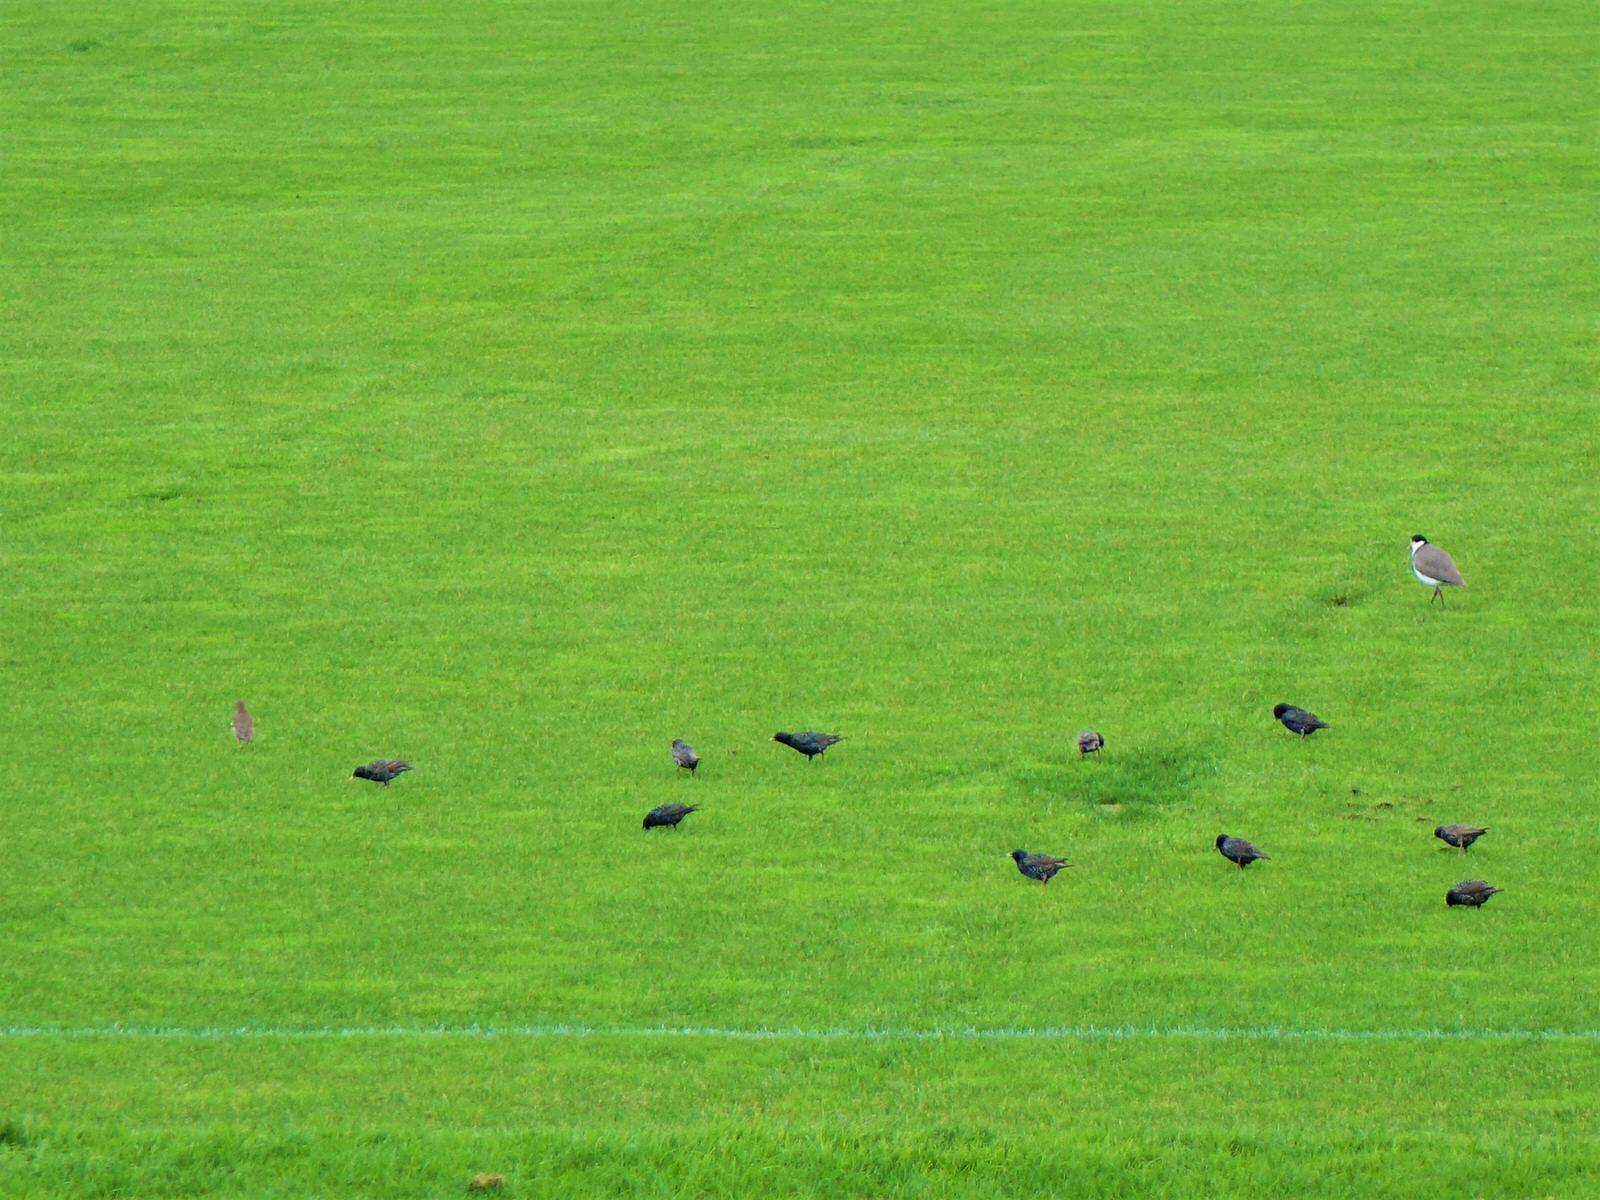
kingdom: Animalia
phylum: Chordata
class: Aves
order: Passeriformes
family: Sturnidae
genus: Sturnus
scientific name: Sturnus vulgaris
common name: Common starling
